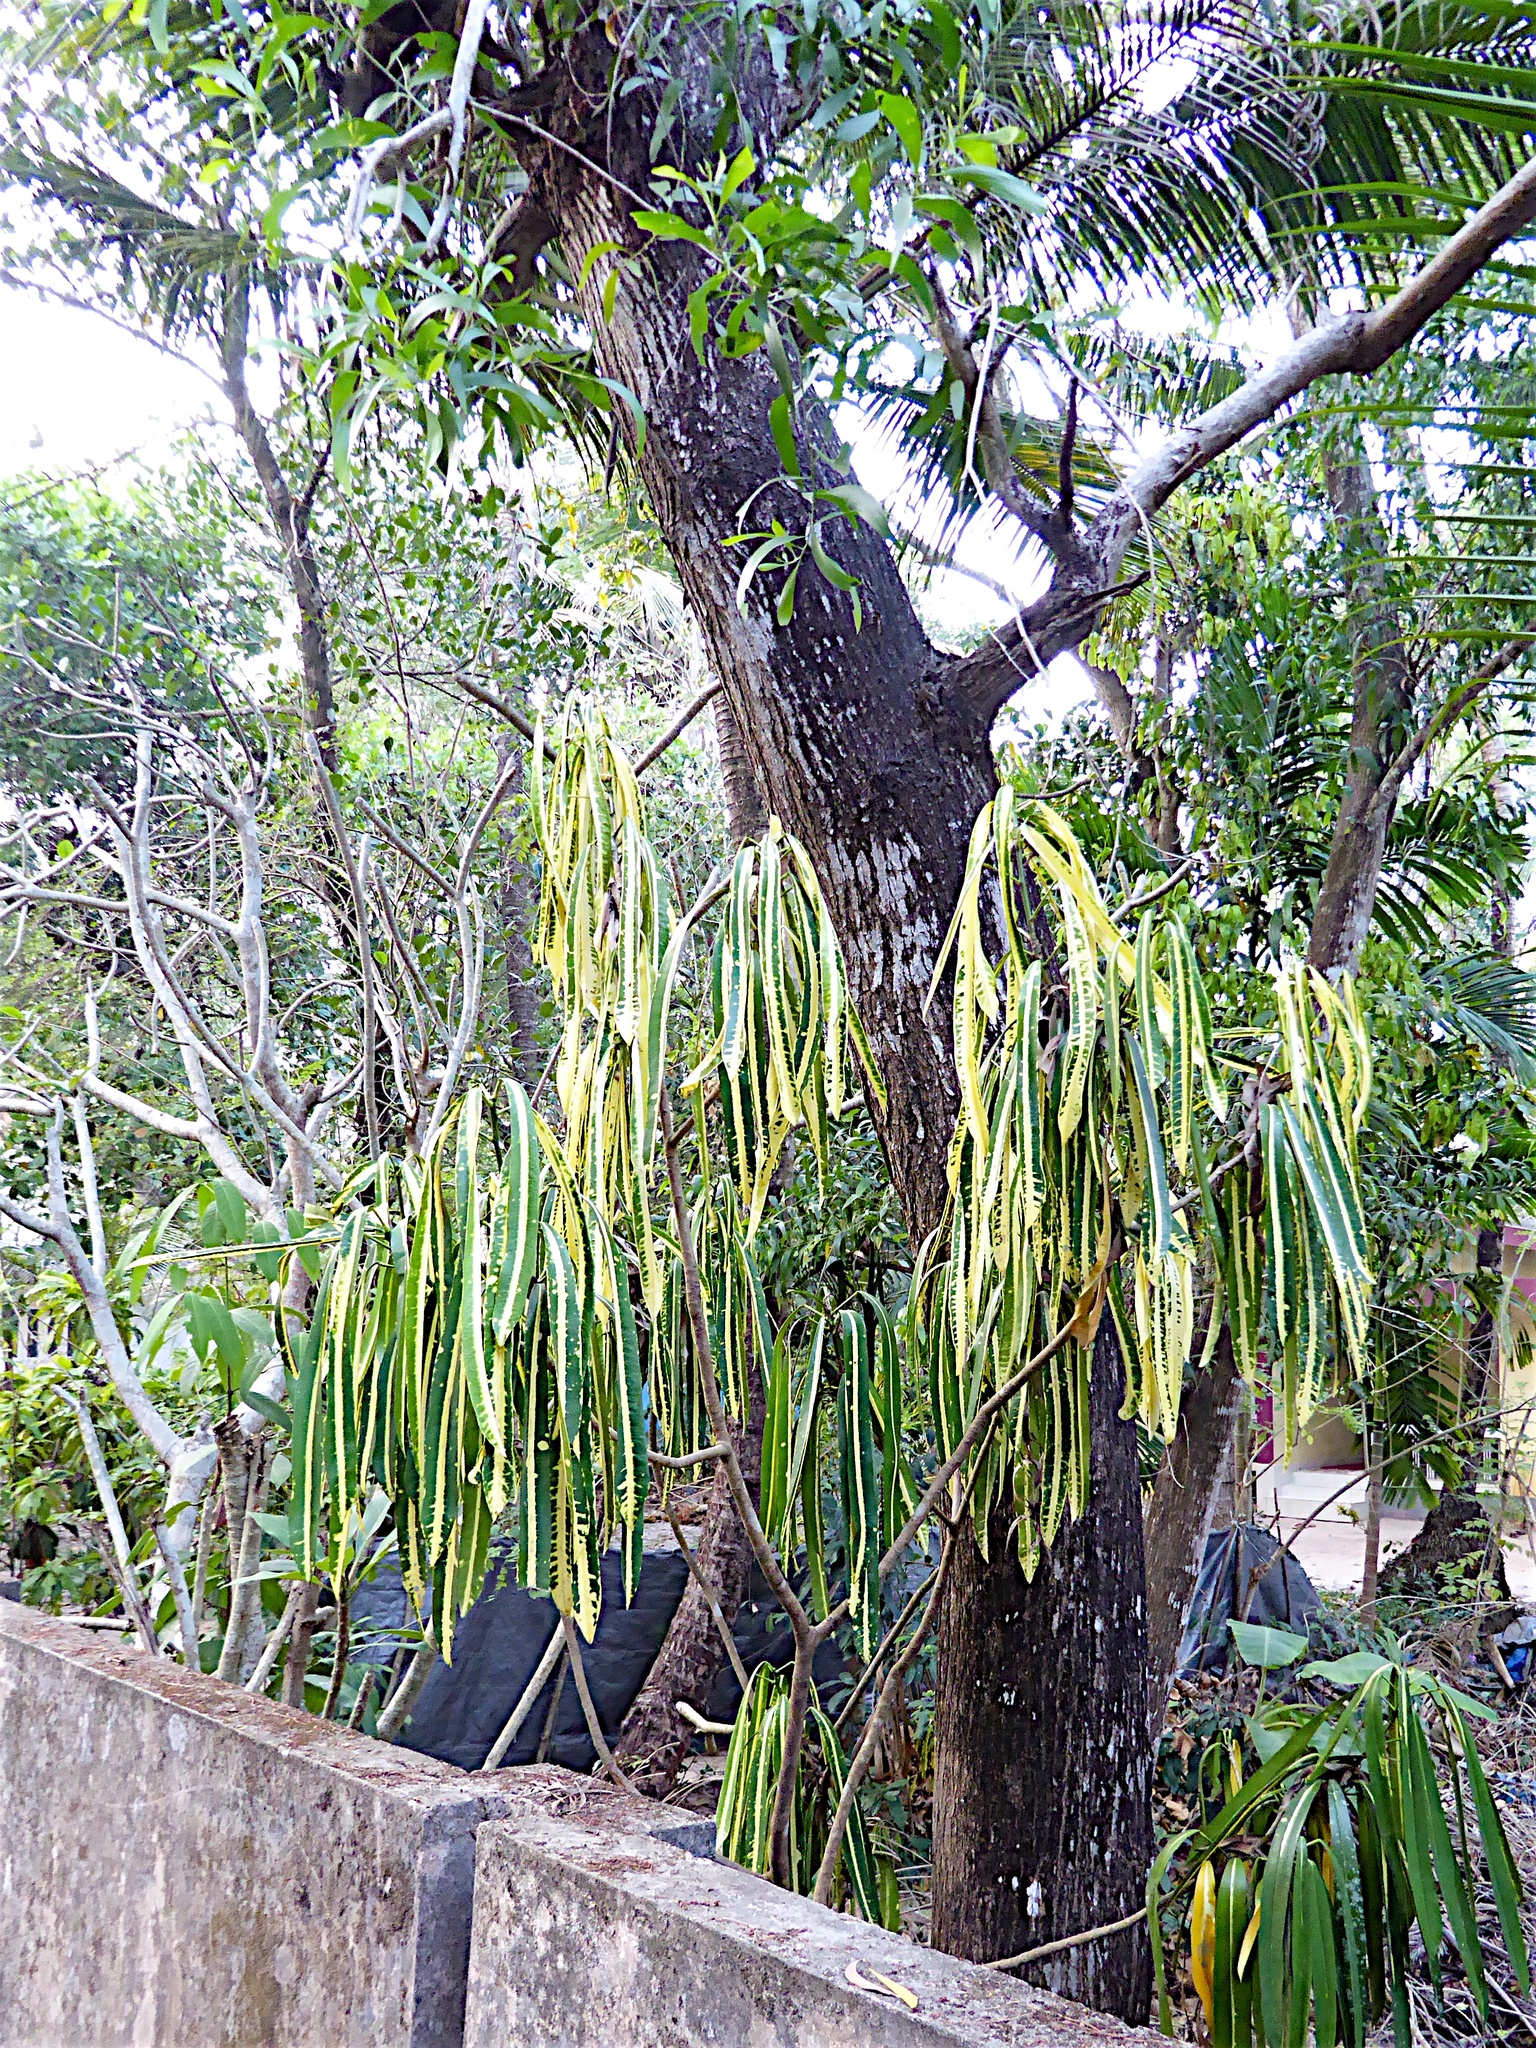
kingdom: Plantae
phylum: Tracheophyta
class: Magnoliopsida
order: Malpighiales
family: Euphorbiaceae
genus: Codiaeum
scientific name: Codiaeum variegatum
